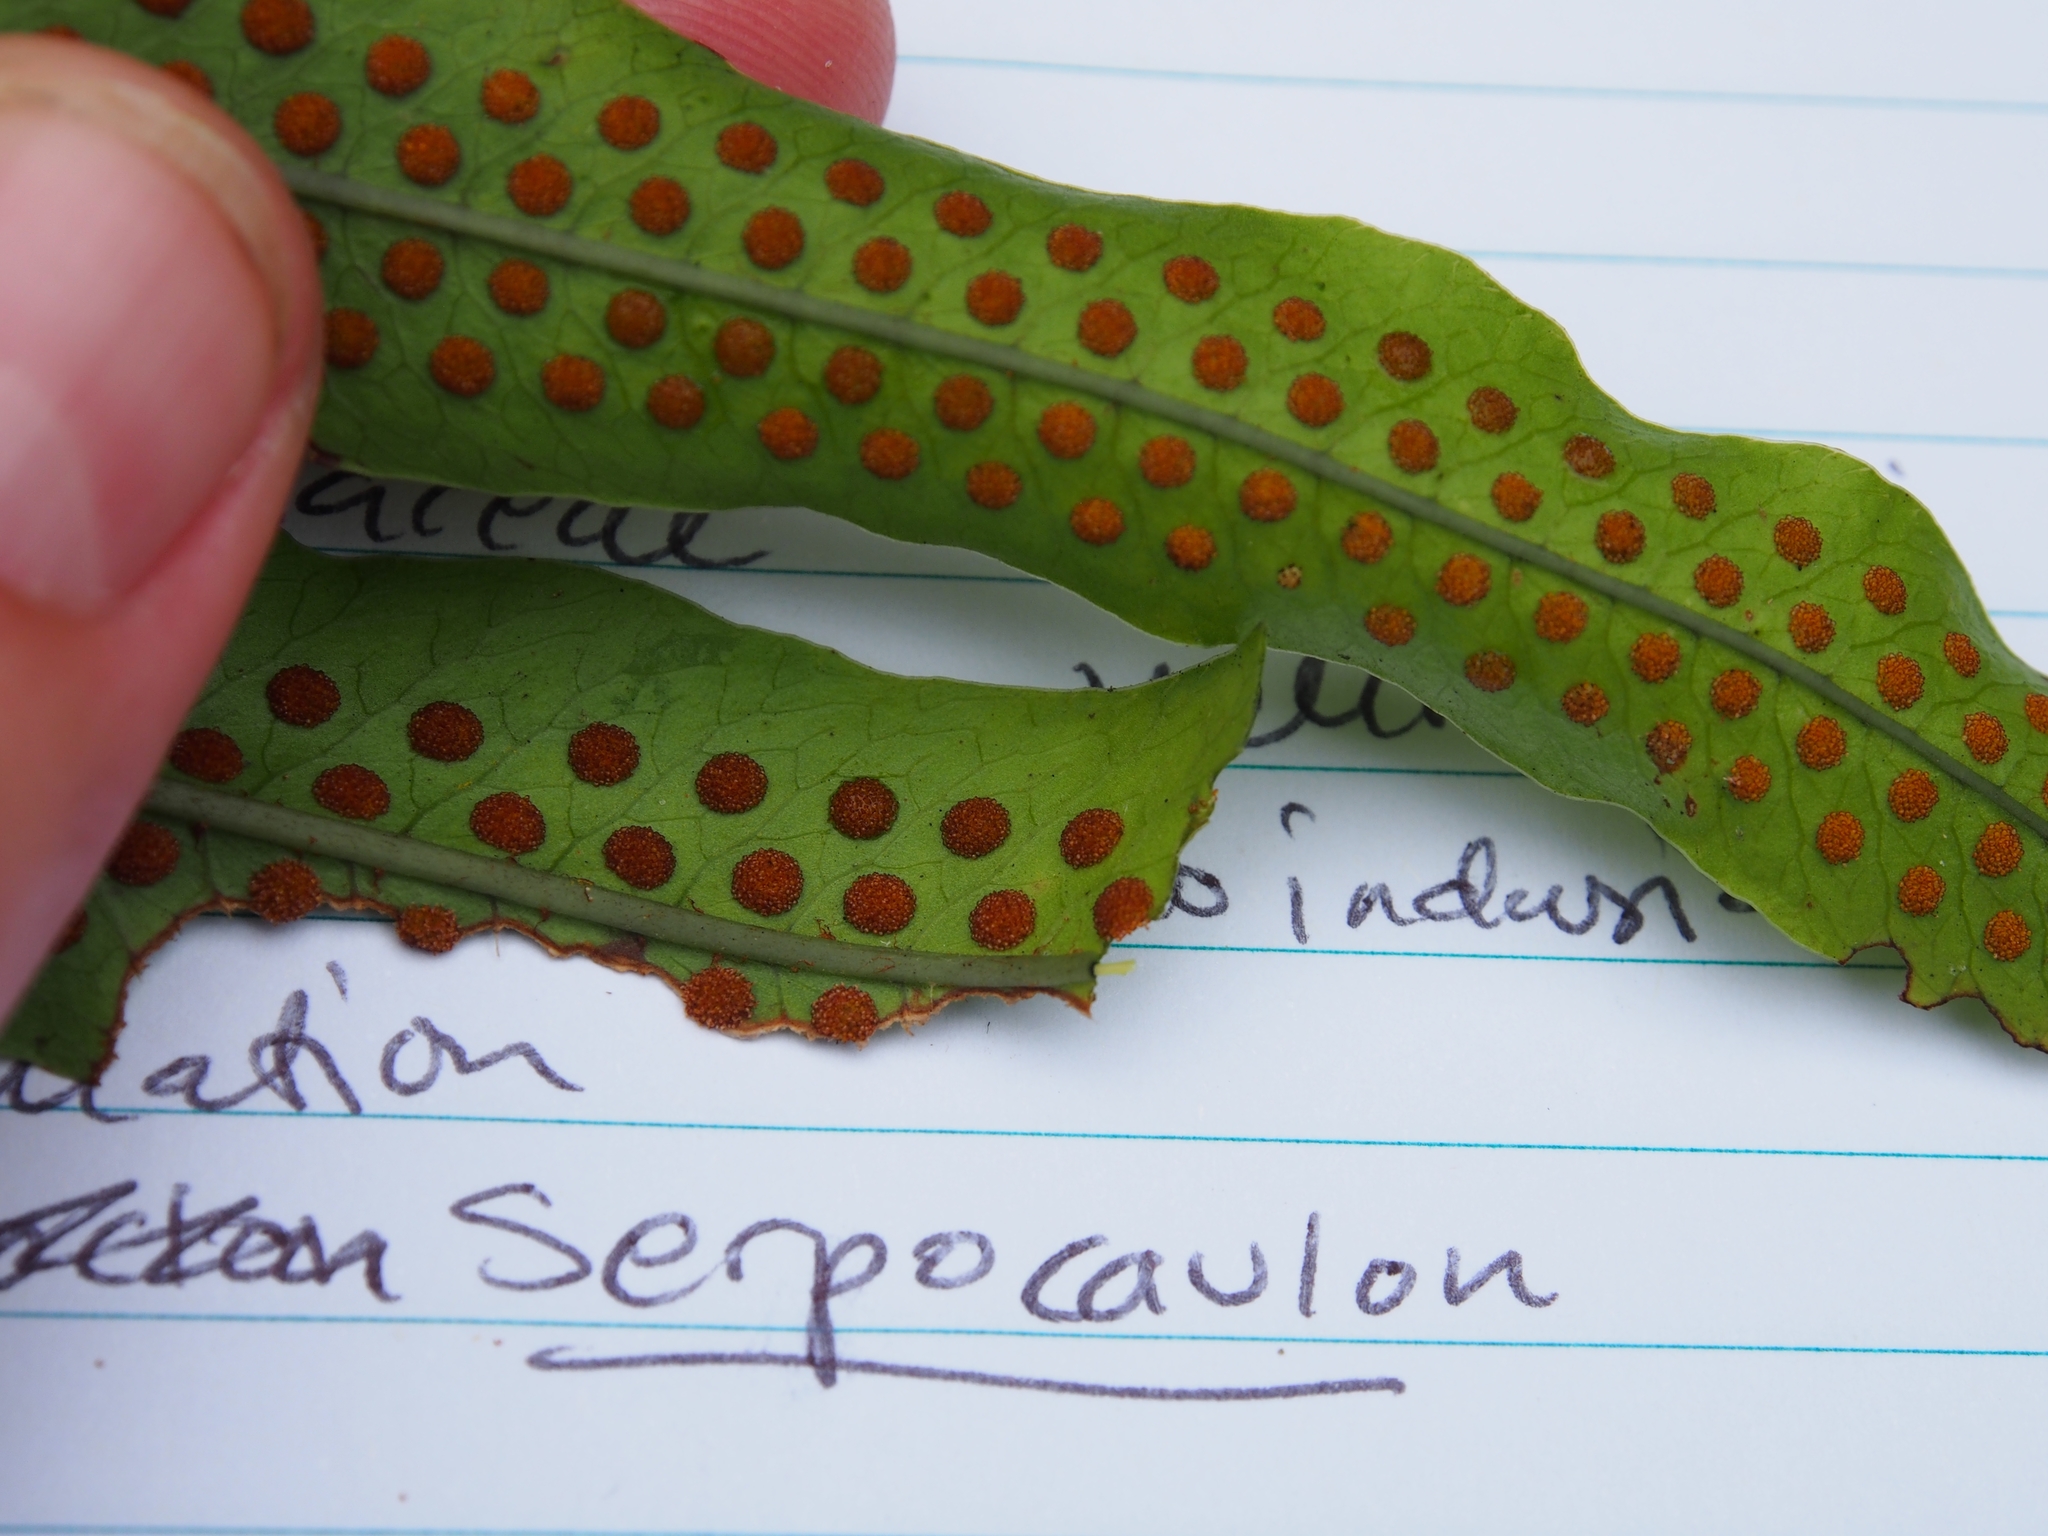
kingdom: Plantae
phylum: Tracheophyta
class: Polypodiopsida
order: Polypodiales
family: Polypodiaceae
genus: Serpocaulon
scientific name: Serpocaulon triseriale
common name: Angle-vein fern
